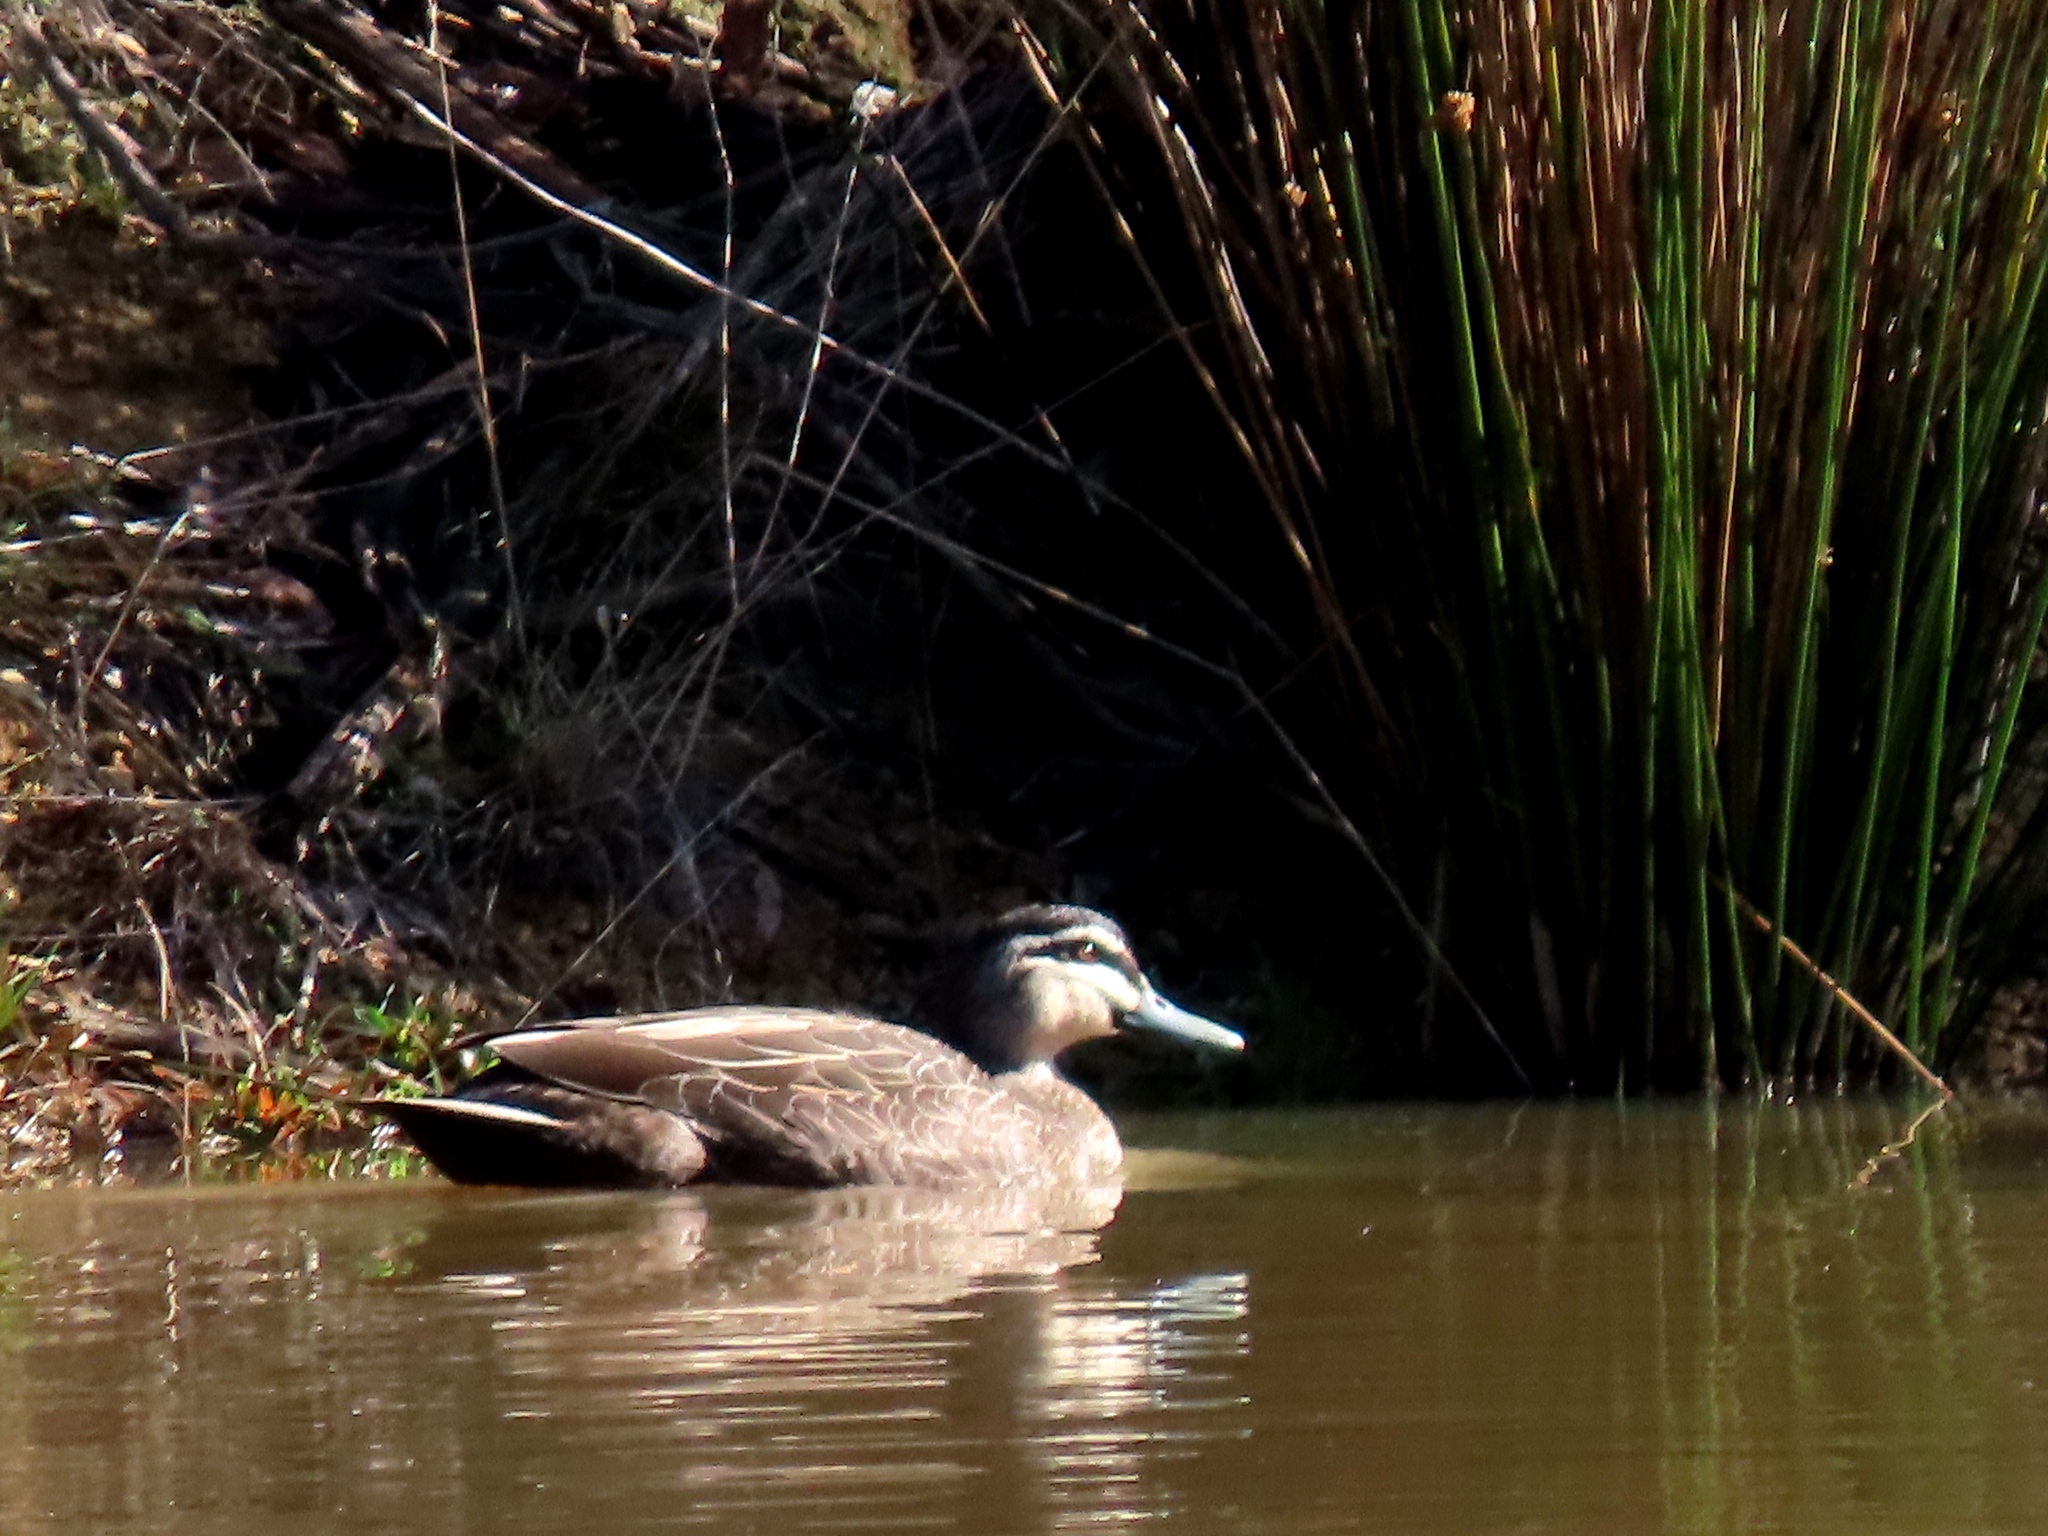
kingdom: Animalia
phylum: Chordata
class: Aves
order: Anseriformes
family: Anatidae
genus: Anas
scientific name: Anas superciliosa
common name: Pacific black duck
